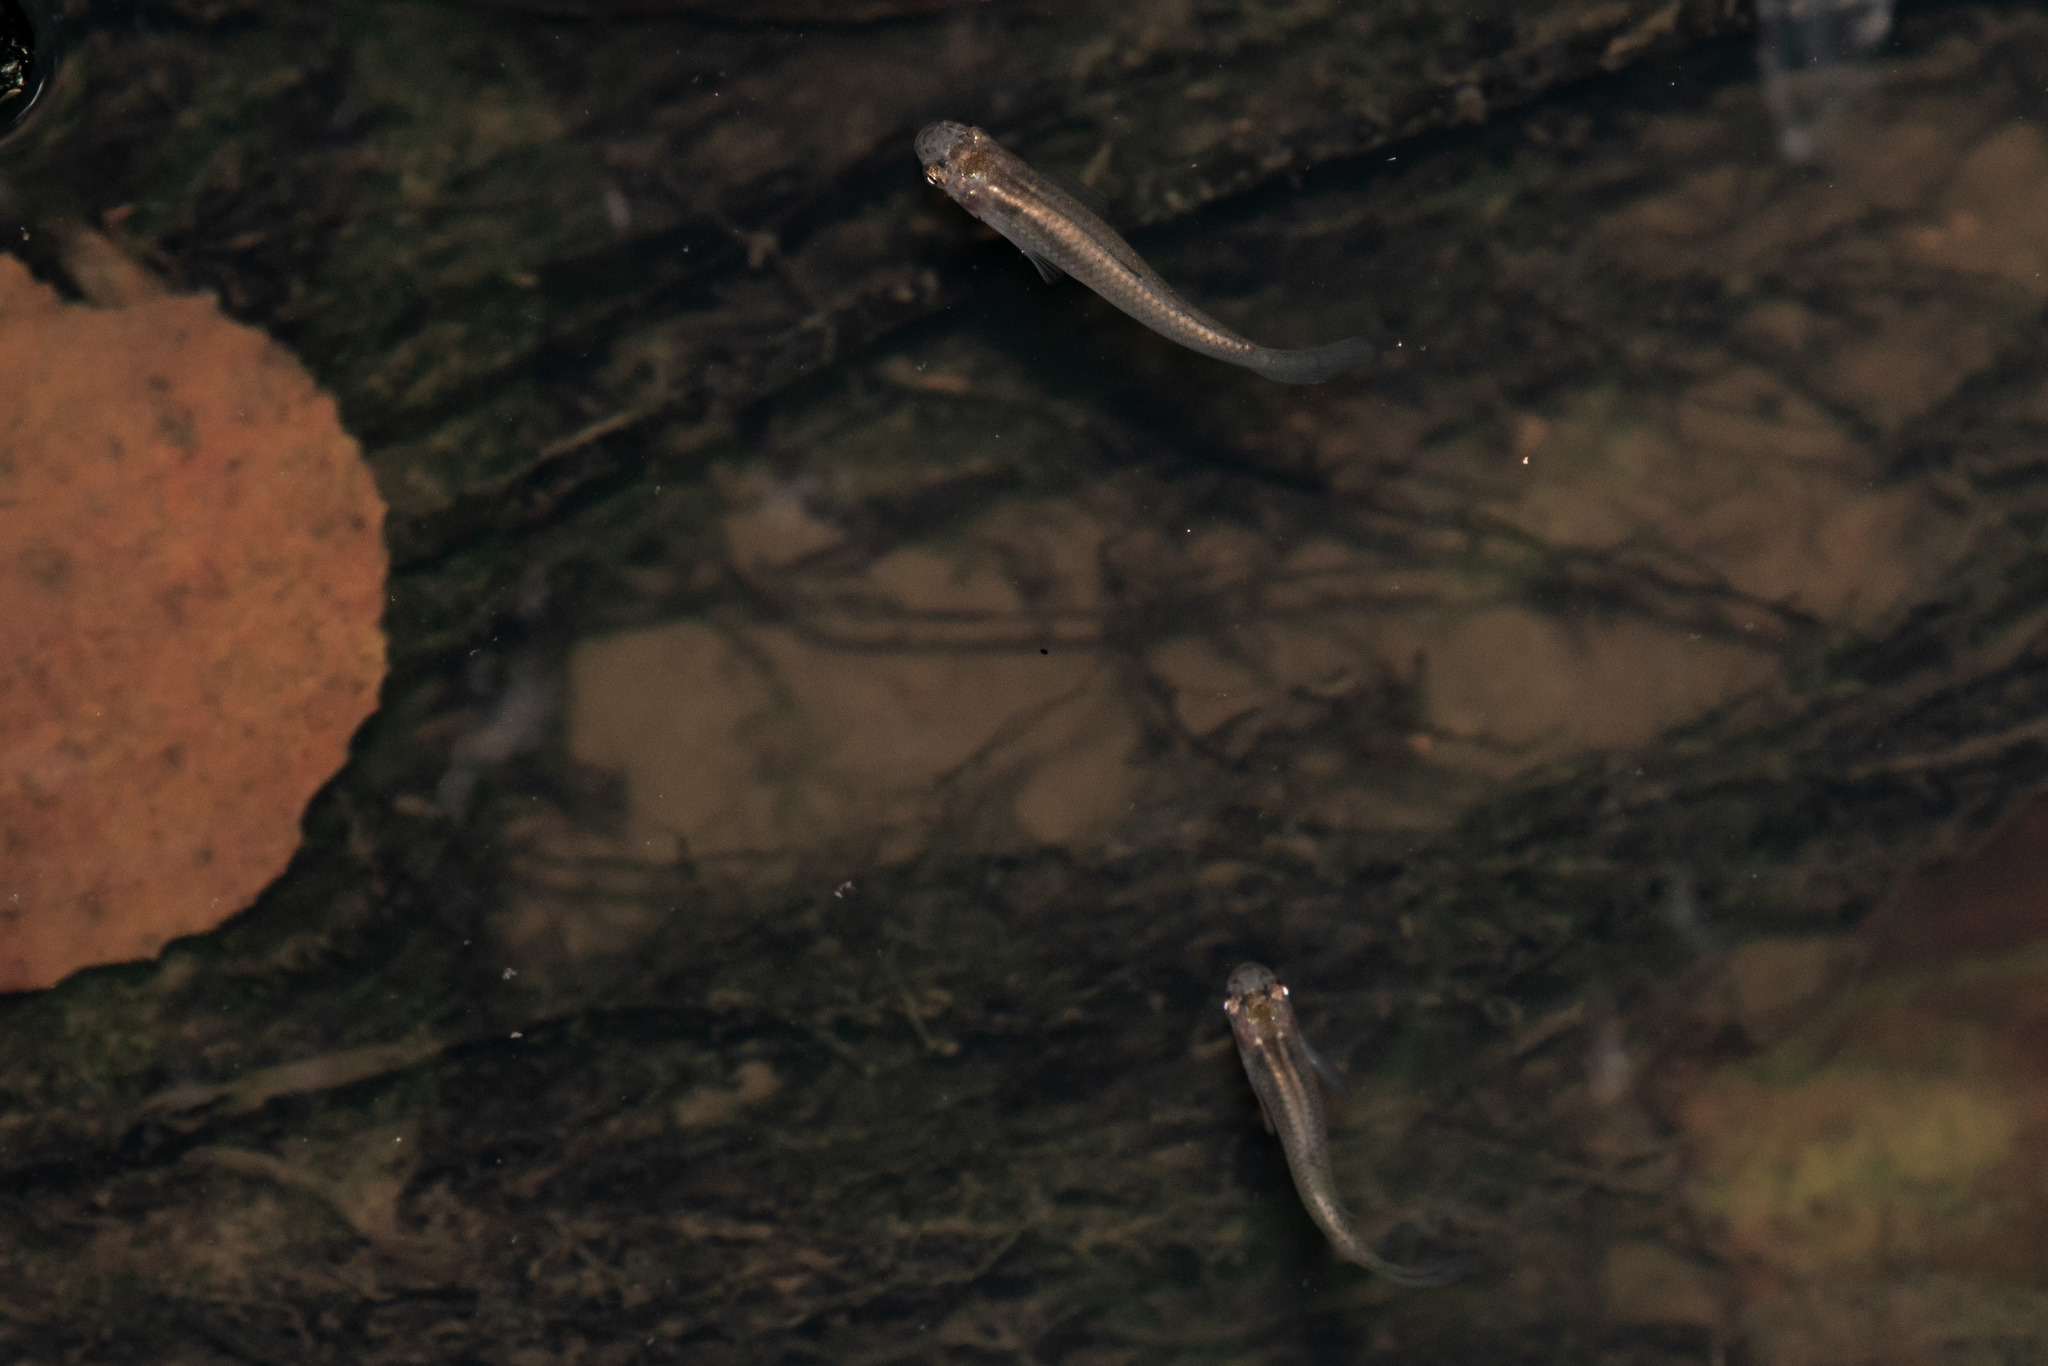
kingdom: Animalia
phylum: Chordata
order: Cyprinodontiformes
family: Poeciliidae
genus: Gambusia
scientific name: Gambusia affinis
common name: Mosquitofish
